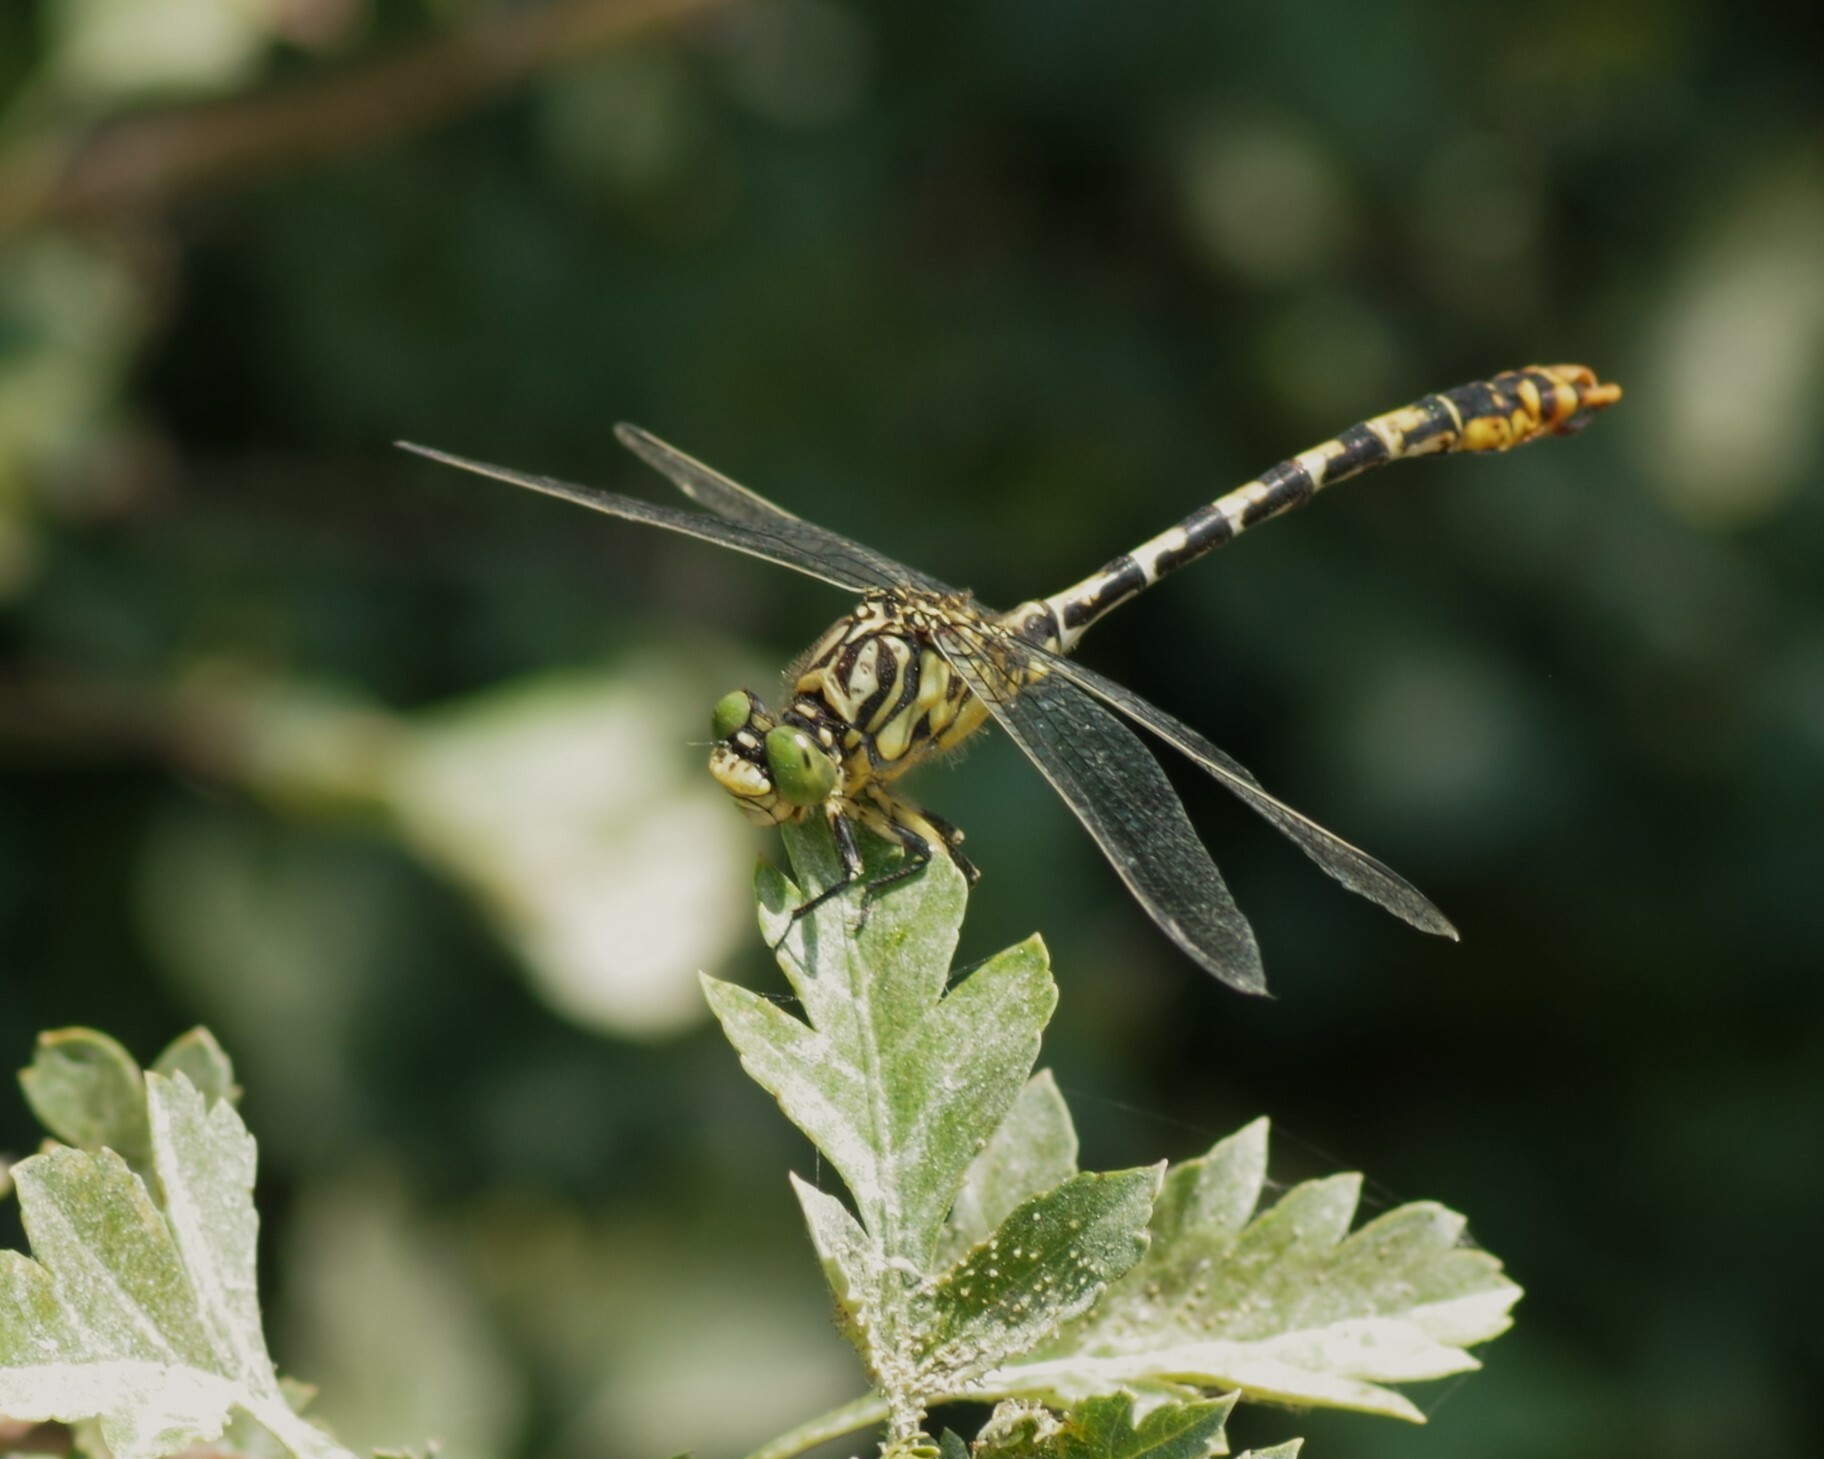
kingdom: Animalia
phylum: Arthropoda
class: Insecta
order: Odonata
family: Gomphidae
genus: Onychogomphus
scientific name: Onychogomphus forcipatus
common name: Small pincertail
